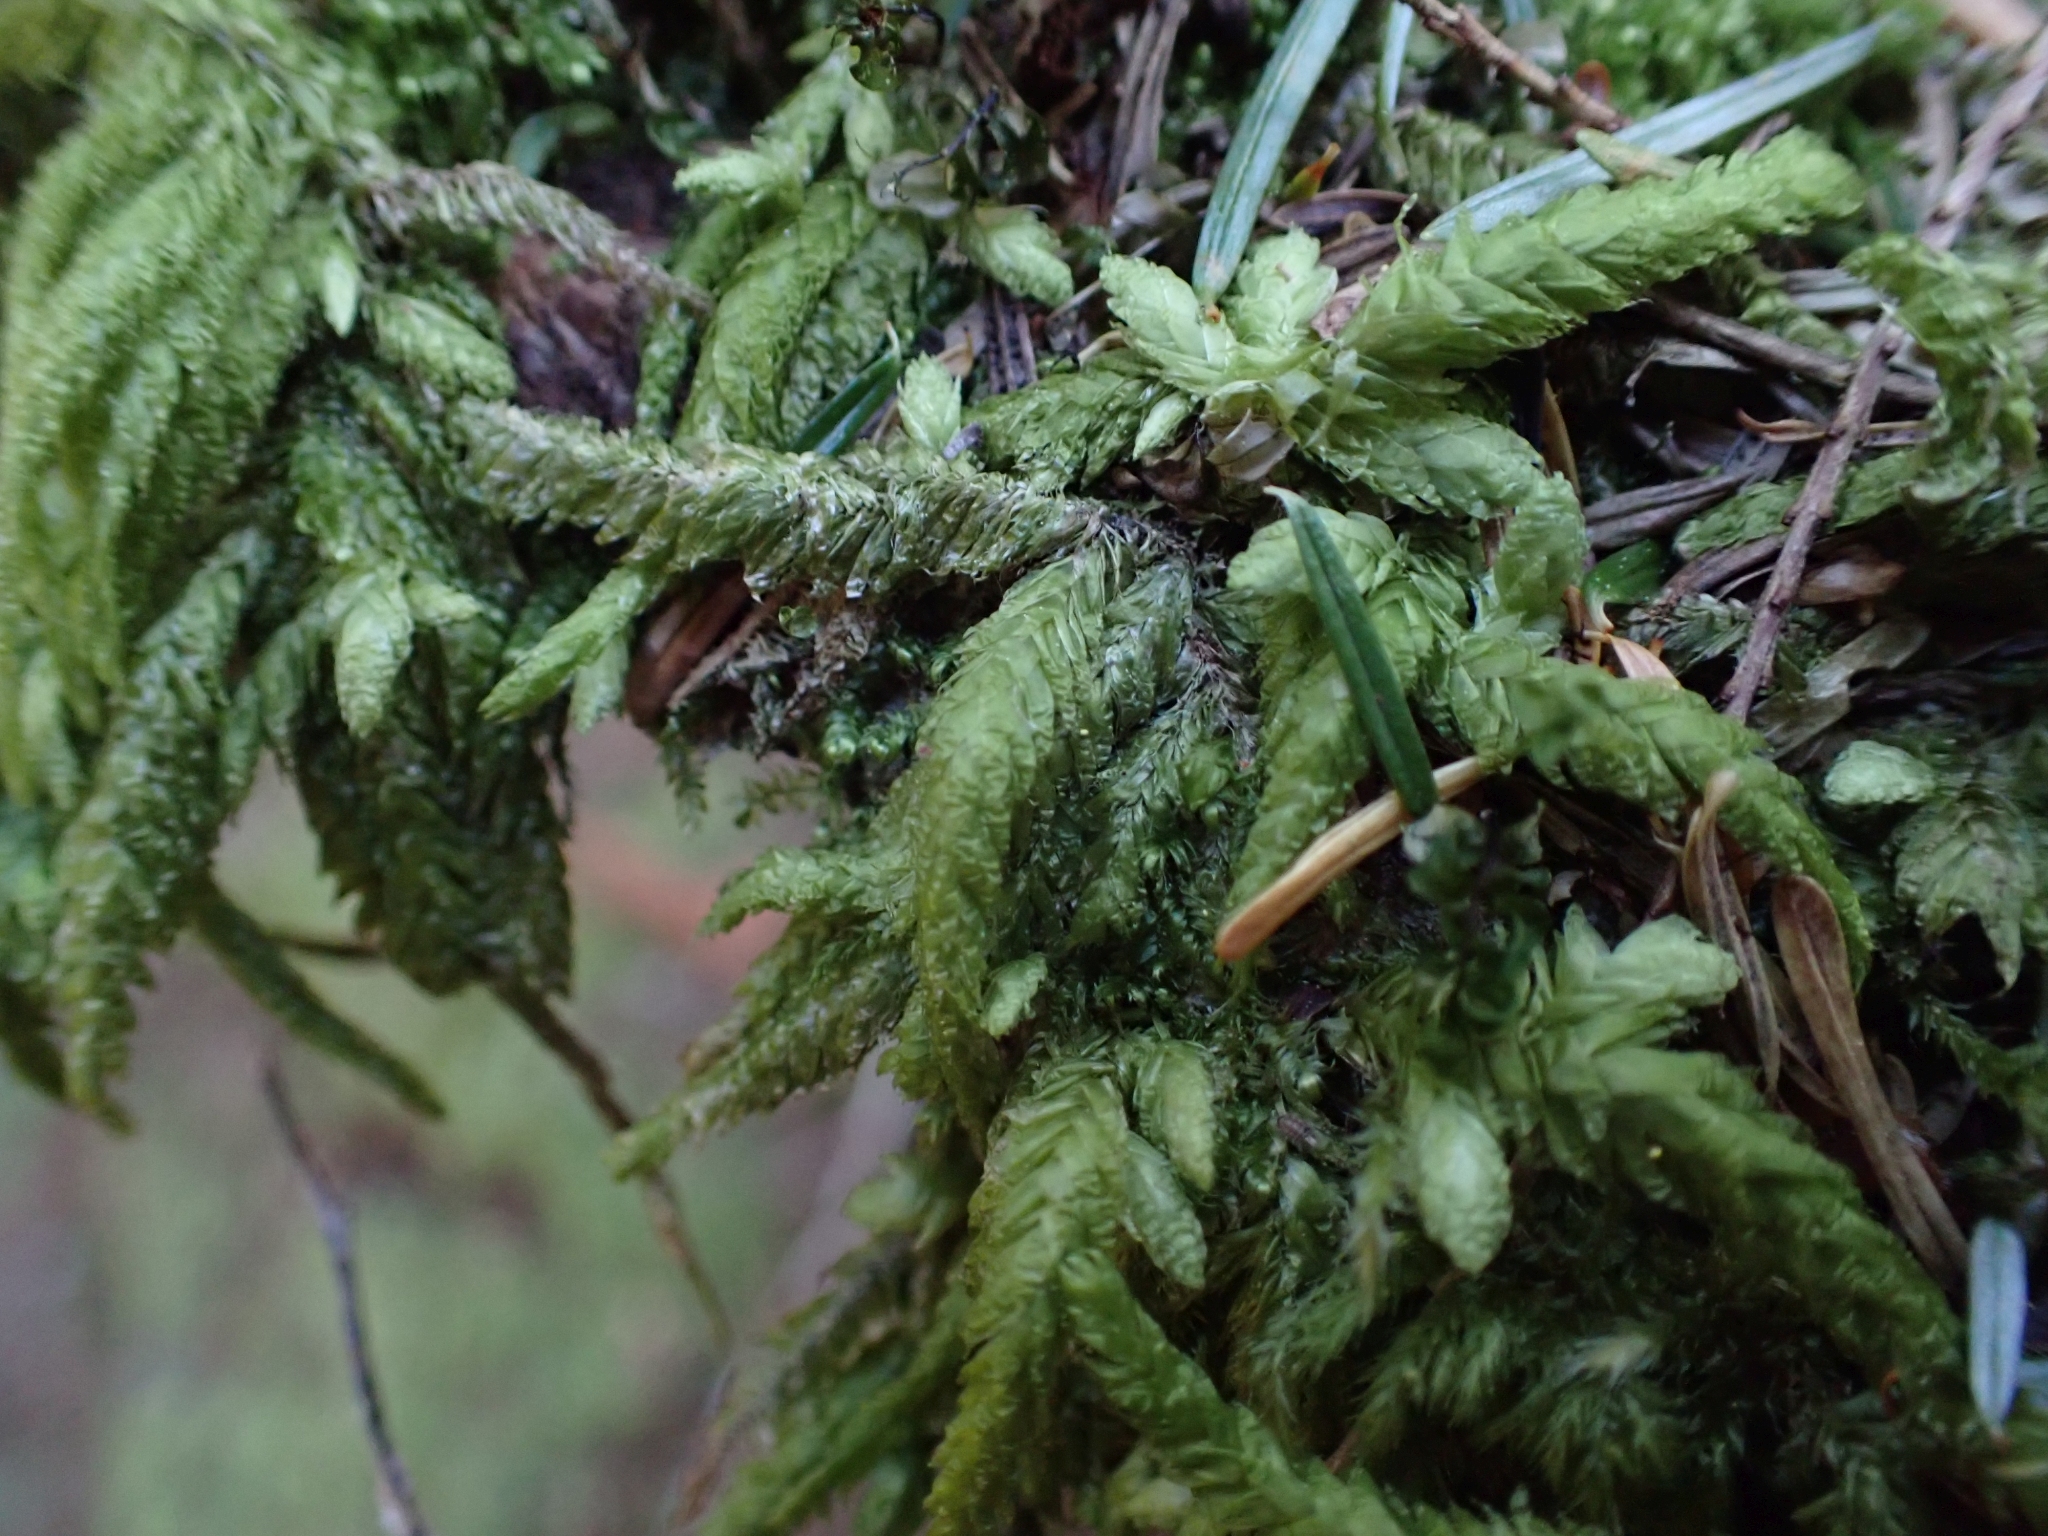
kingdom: Plantae
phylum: Bryophyta
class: Bryopsida
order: Hypnales
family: Plagiotheciaceae
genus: Plagiothecium
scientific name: Plagiothecium undulatum
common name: Waved silk-moss
